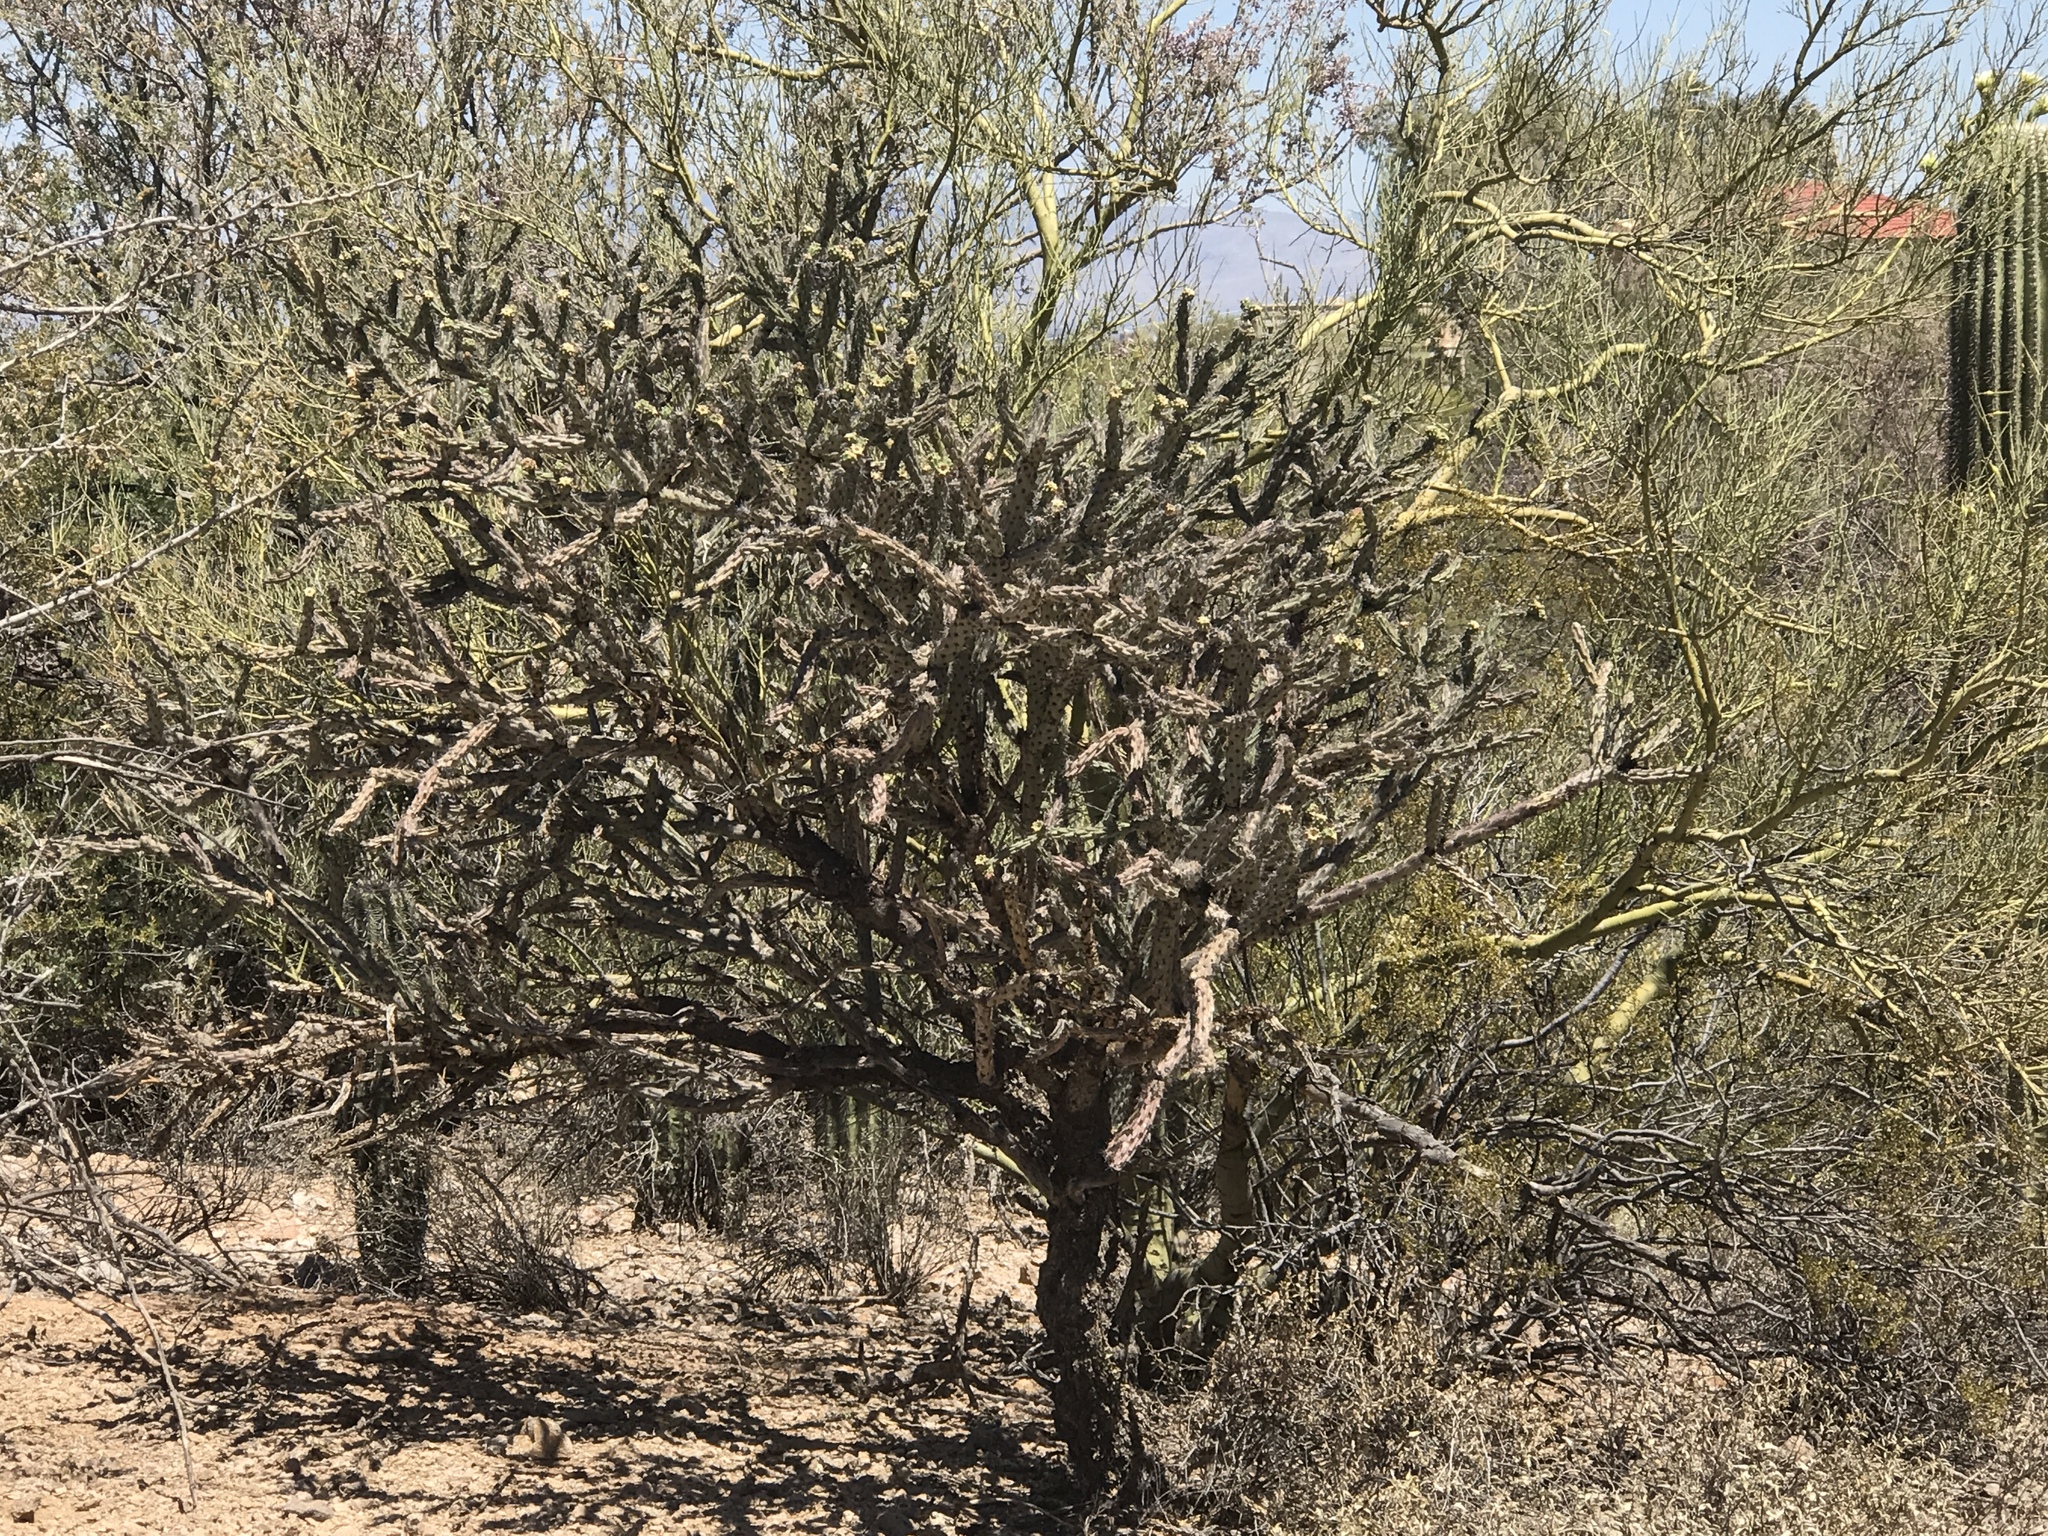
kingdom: Plantae
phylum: Tracheophyta
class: Magnoliopsida
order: Caryophyllales
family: Cactaceae
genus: Cylindropuntia
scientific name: Cylindropuntia acanthocarpa
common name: Buckhorn cholla
